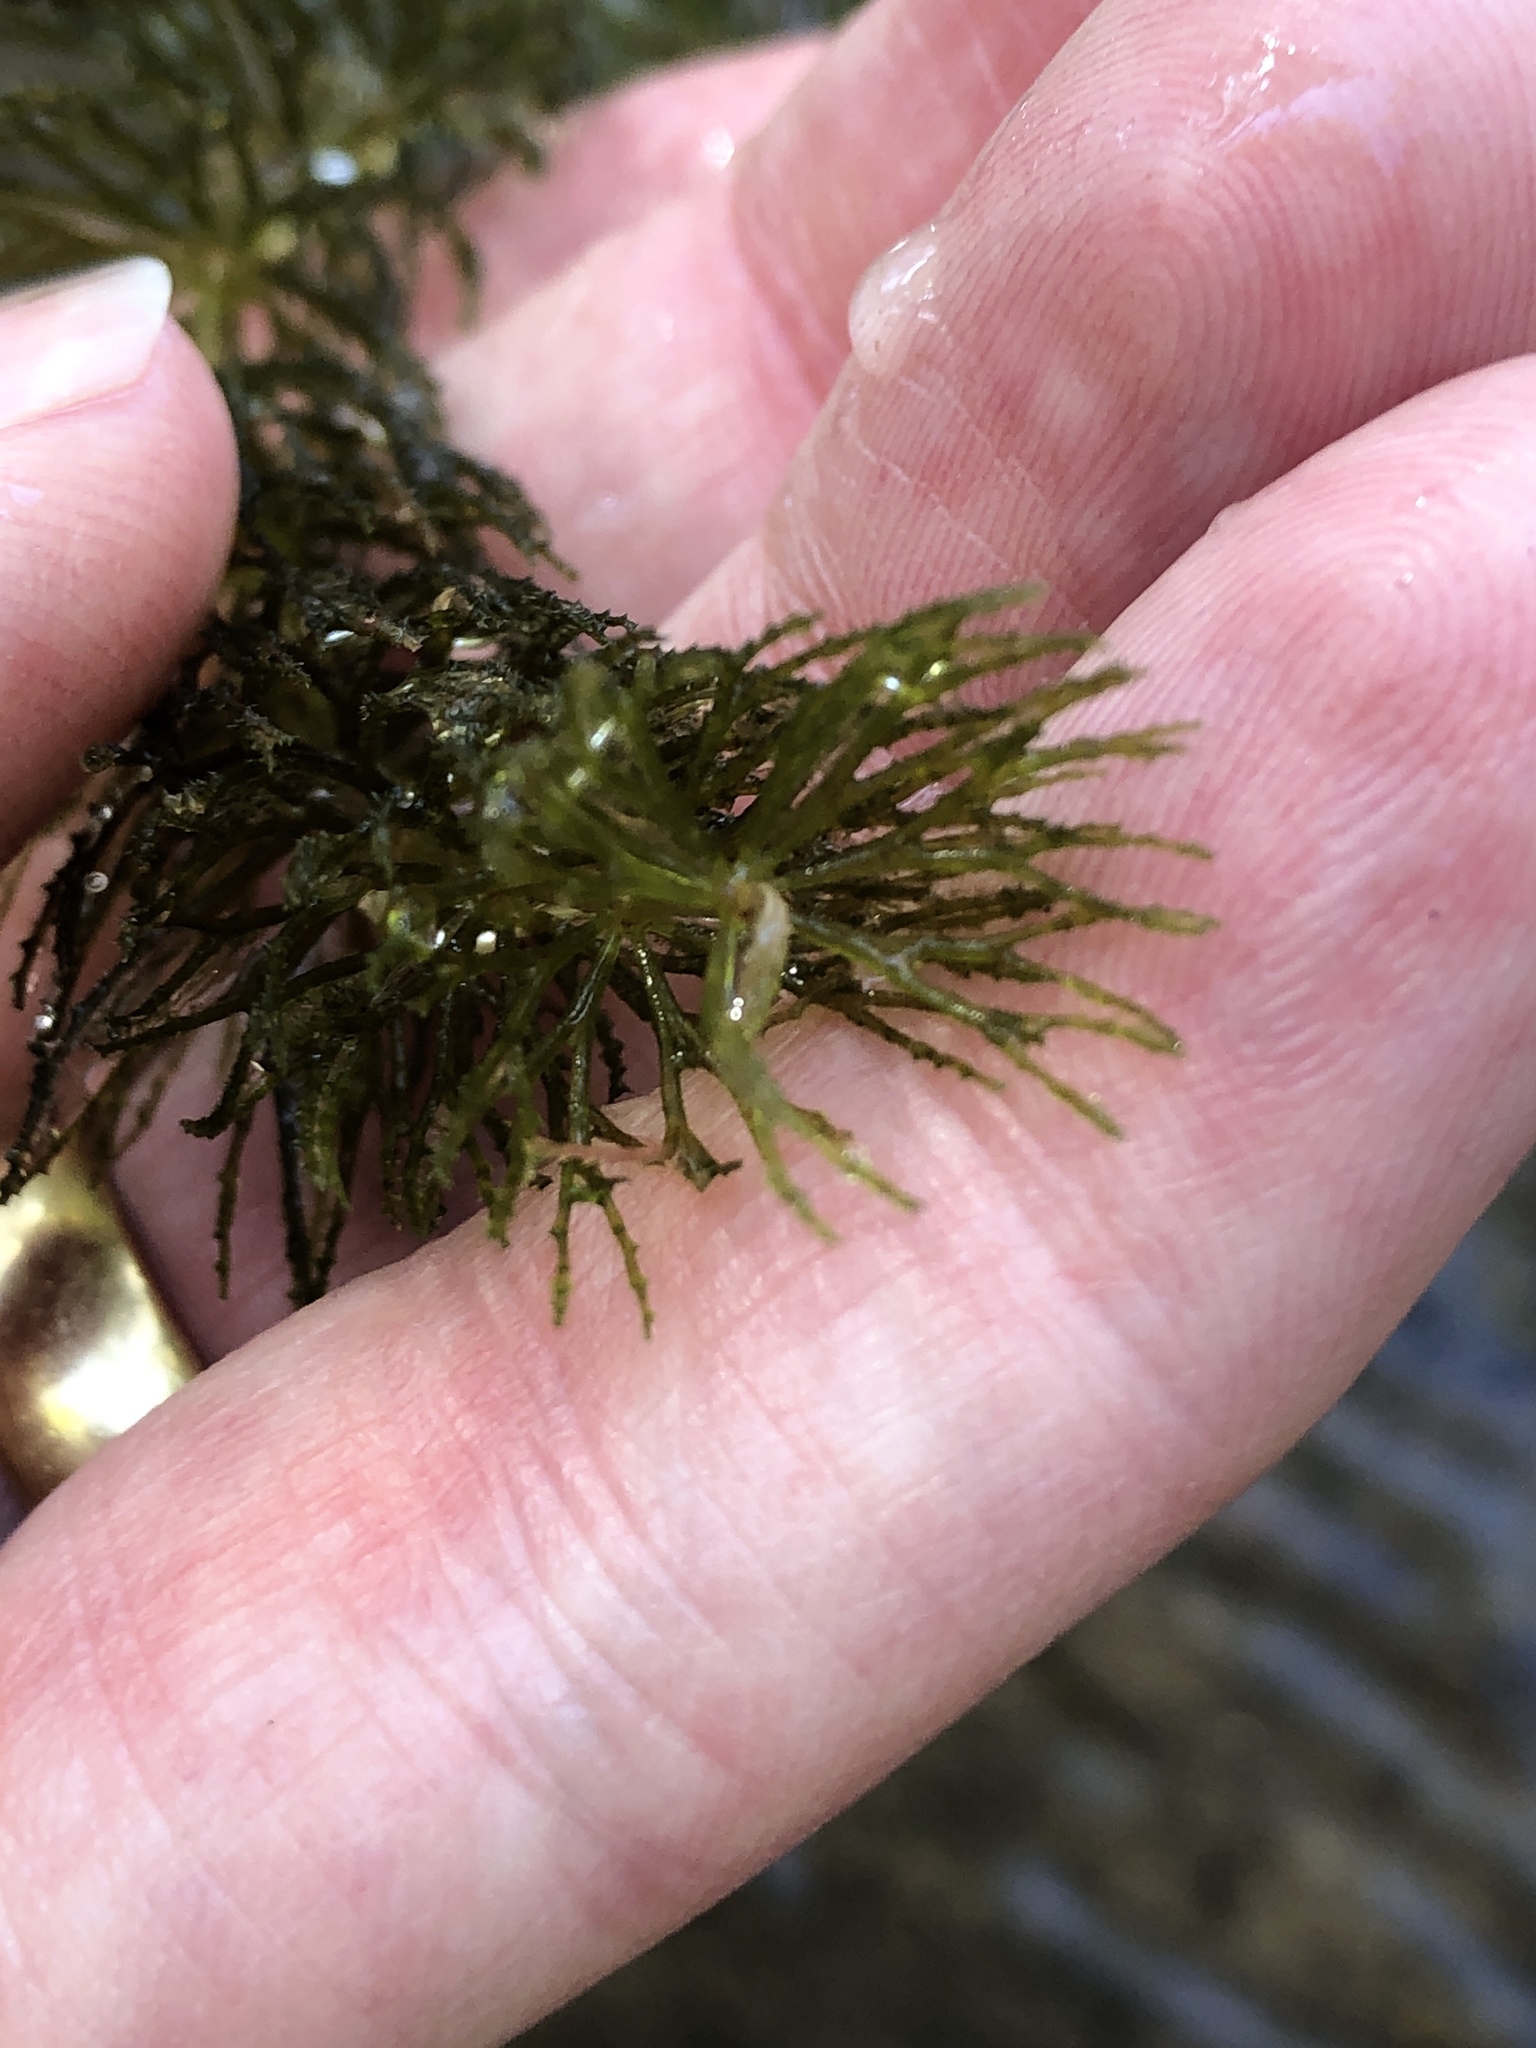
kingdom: Plantae
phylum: Tracheophyta
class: Magnoliopsida
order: Ceratophyllales
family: Ceratophyllaceae
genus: Ceratophyllum
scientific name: Ceratophyllum demersum
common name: Rigid hornwort
